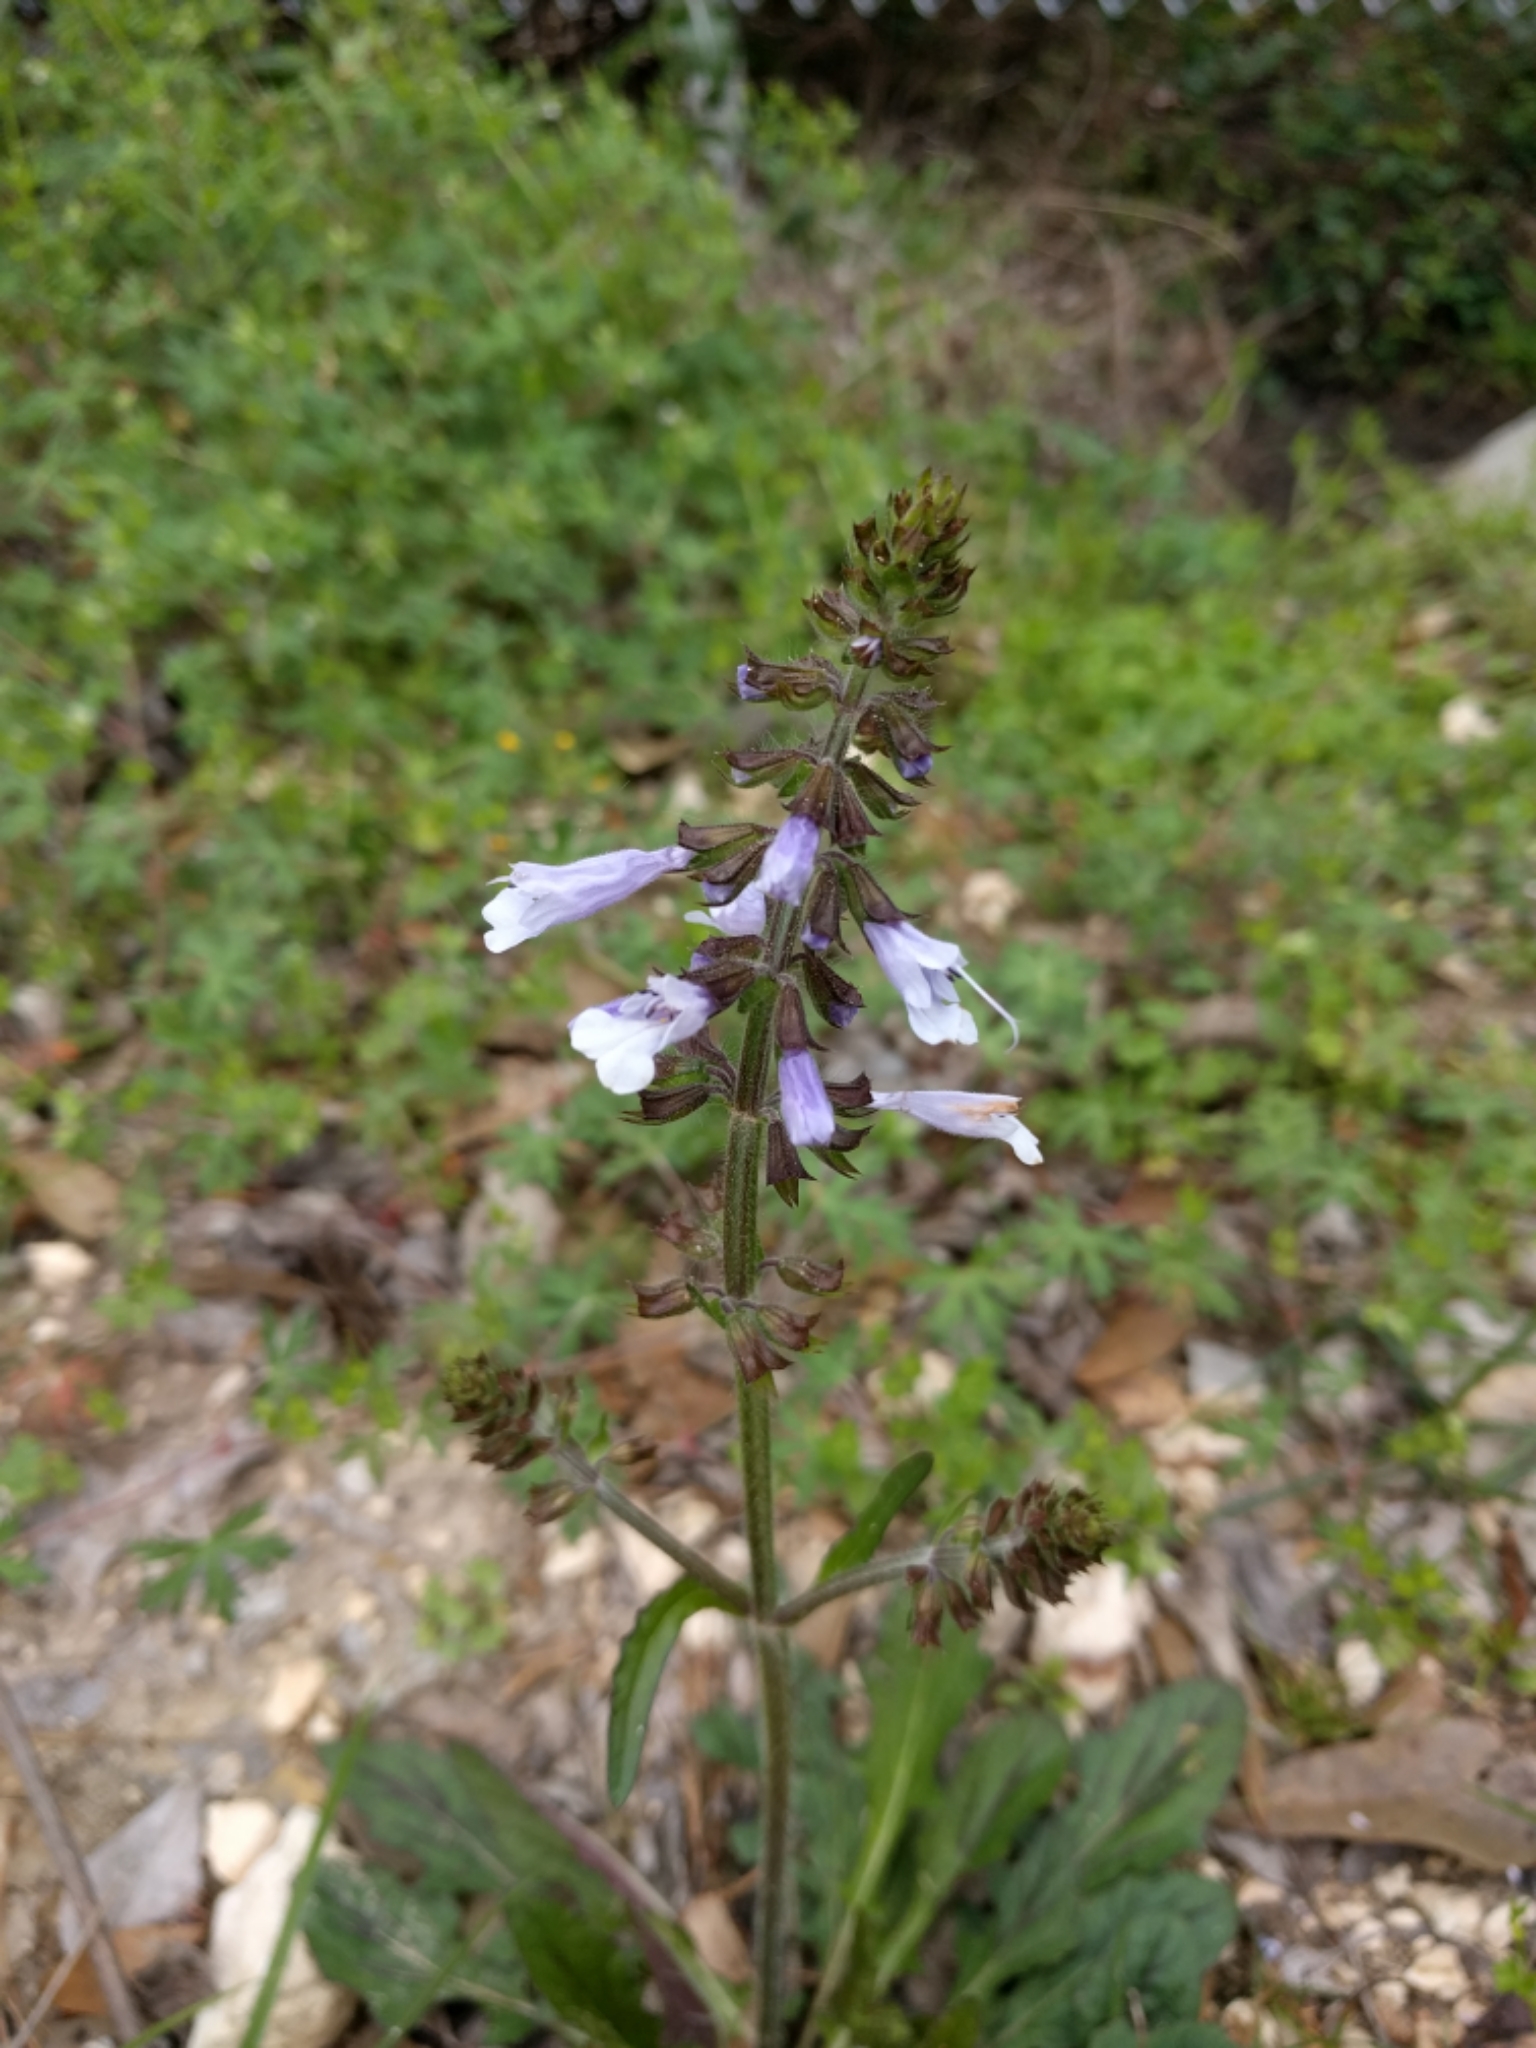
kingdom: Plantae
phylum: Tracheophyta
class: Magnoliopsida
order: Lamiales
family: Lamiaceae
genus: Salvia
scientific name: Salvia lyrata
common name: Cancerweed
